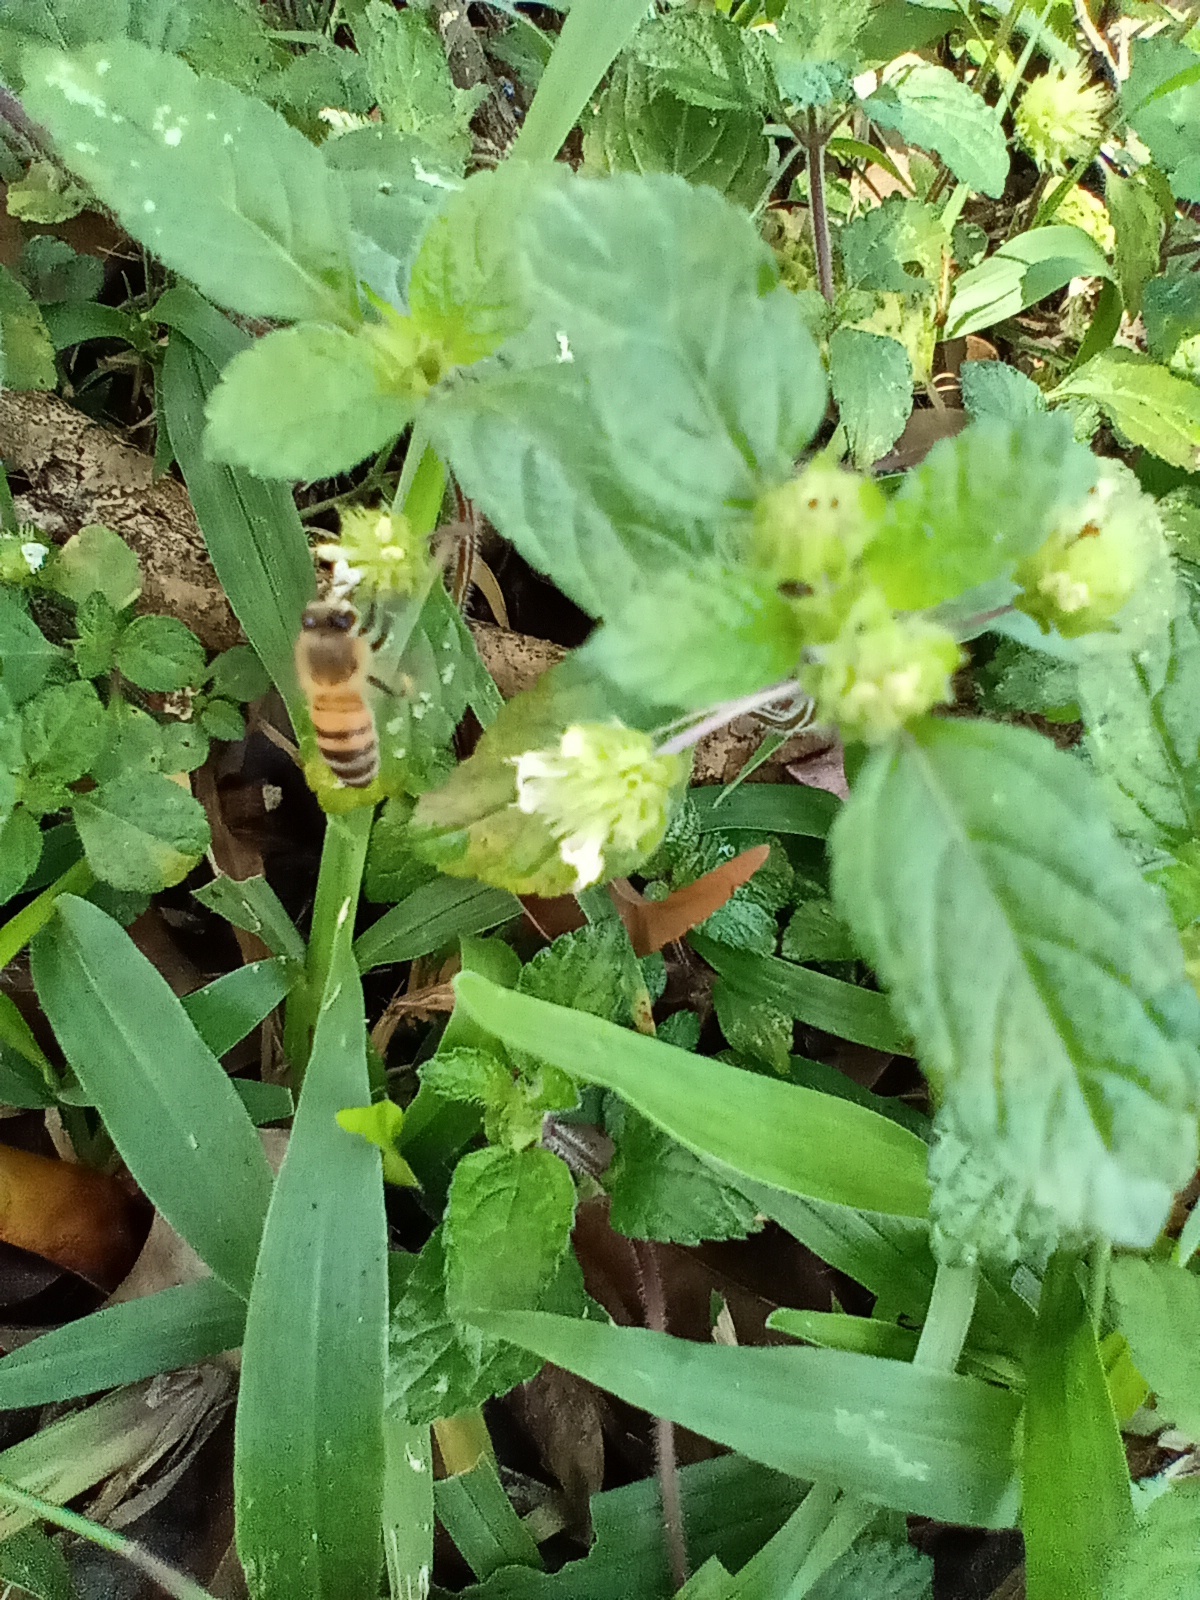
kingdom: Animalia
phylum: Arthropoda
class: Insecta
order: Hymenoptera
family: Apidae
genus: Apis
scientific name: Apis mellifera
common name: Honey bee
